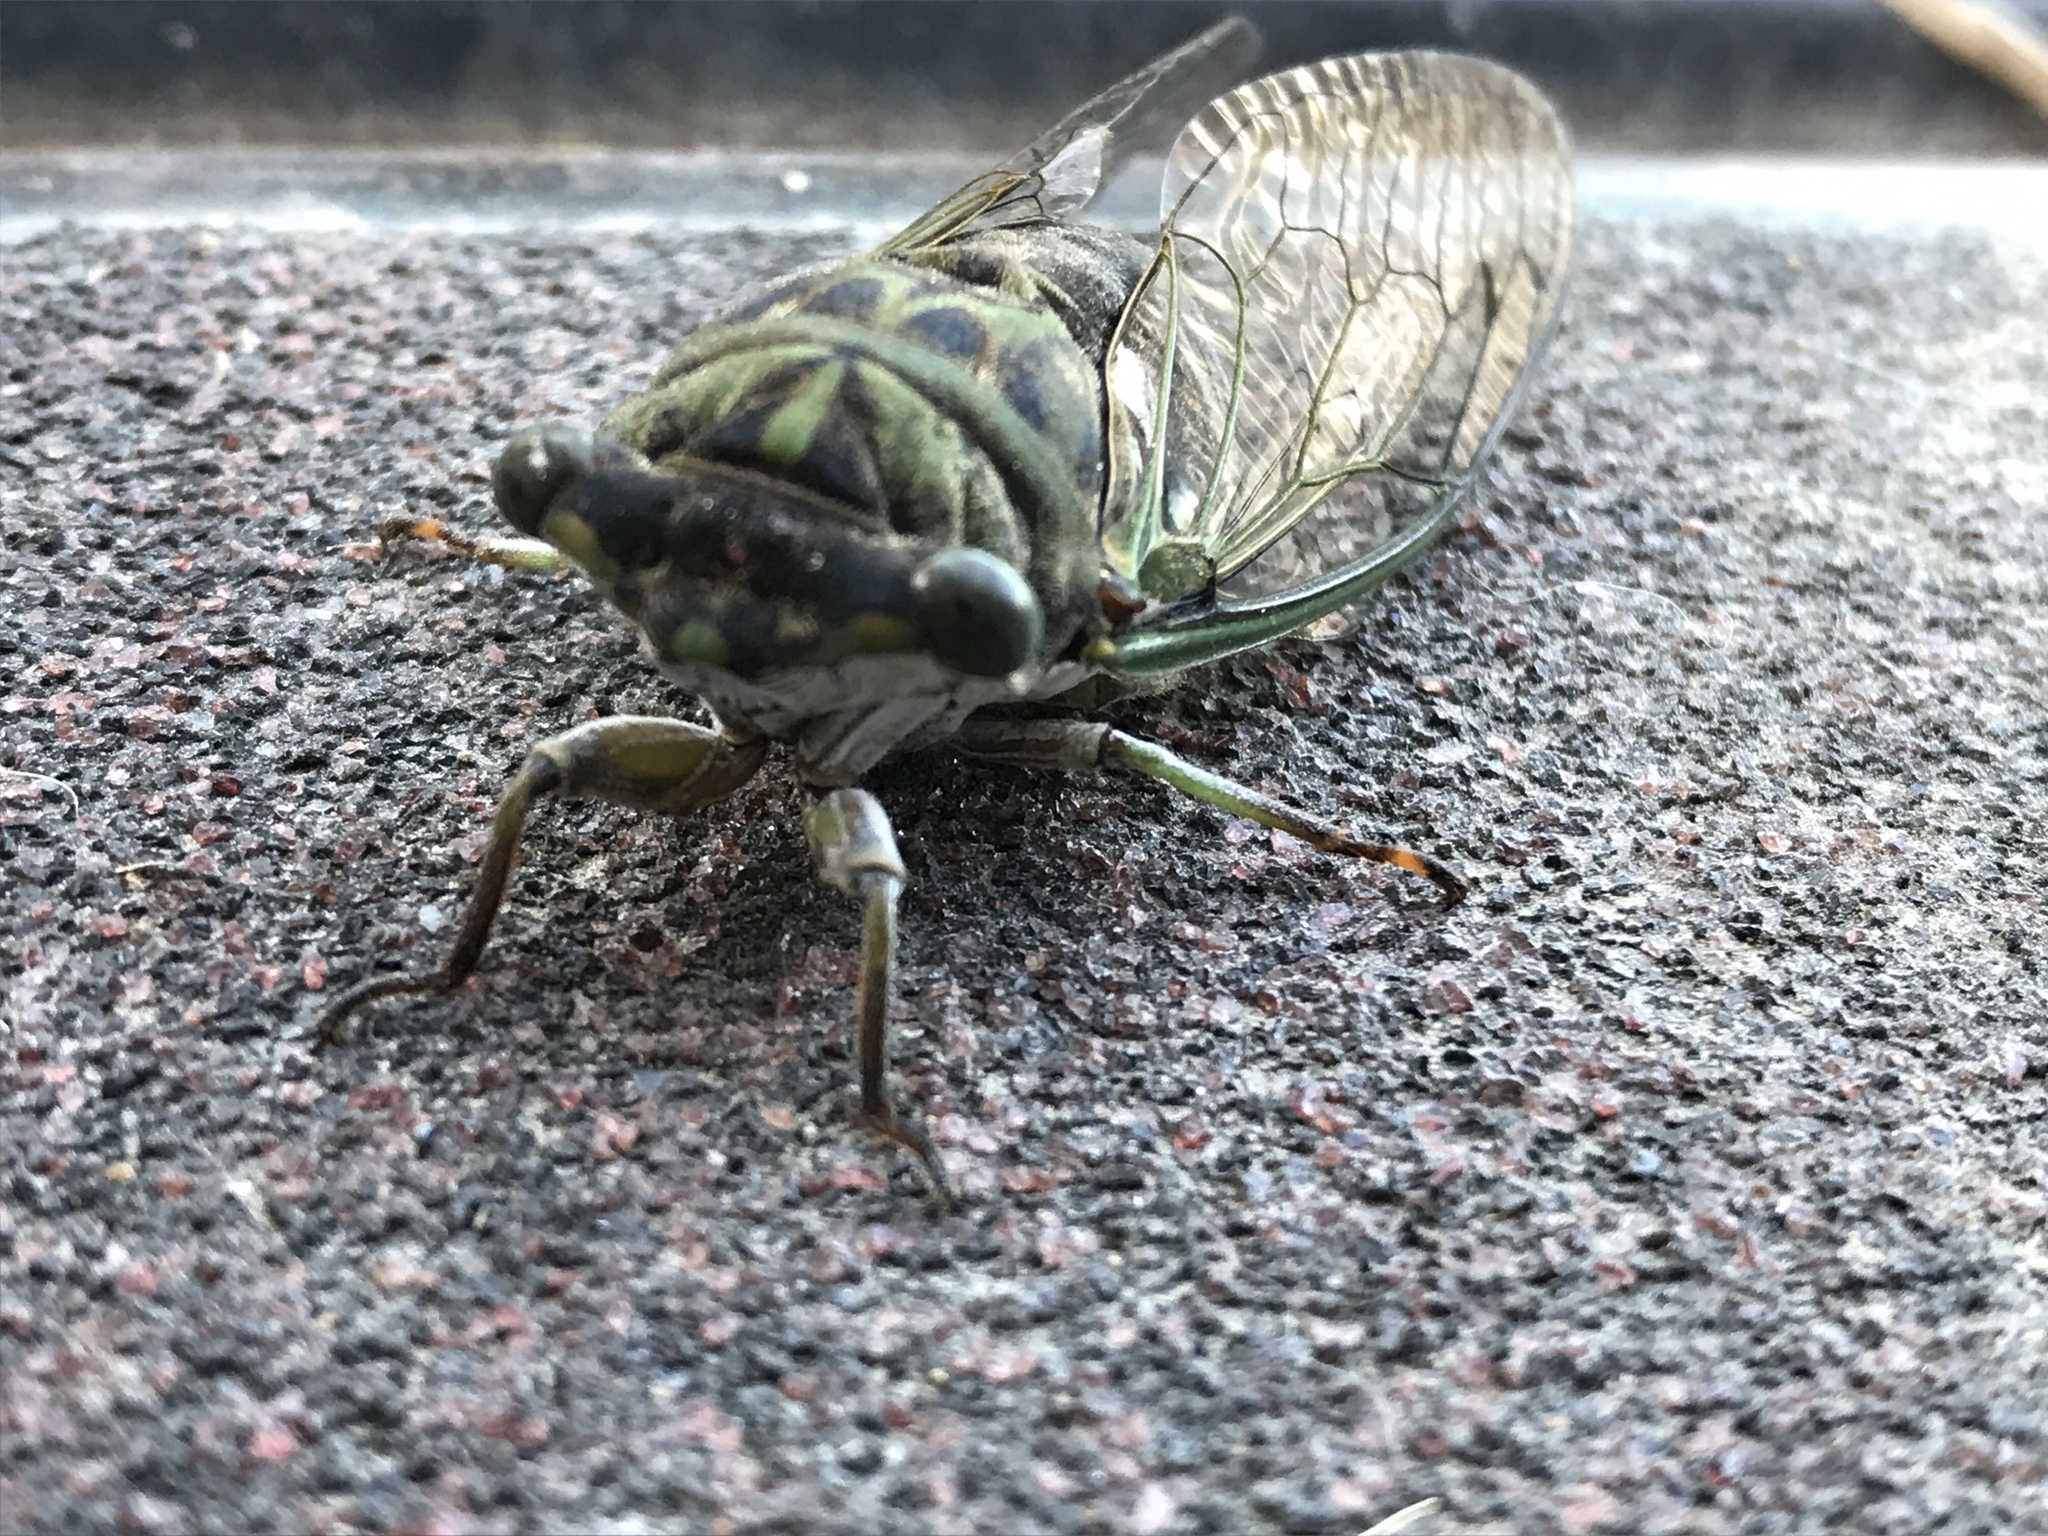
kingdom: Animalia
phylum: Arthropoda
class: Insecta
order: Hemiptera
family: Cicadidae
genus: Neotibicen
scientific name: Neotibicen pruinosus
